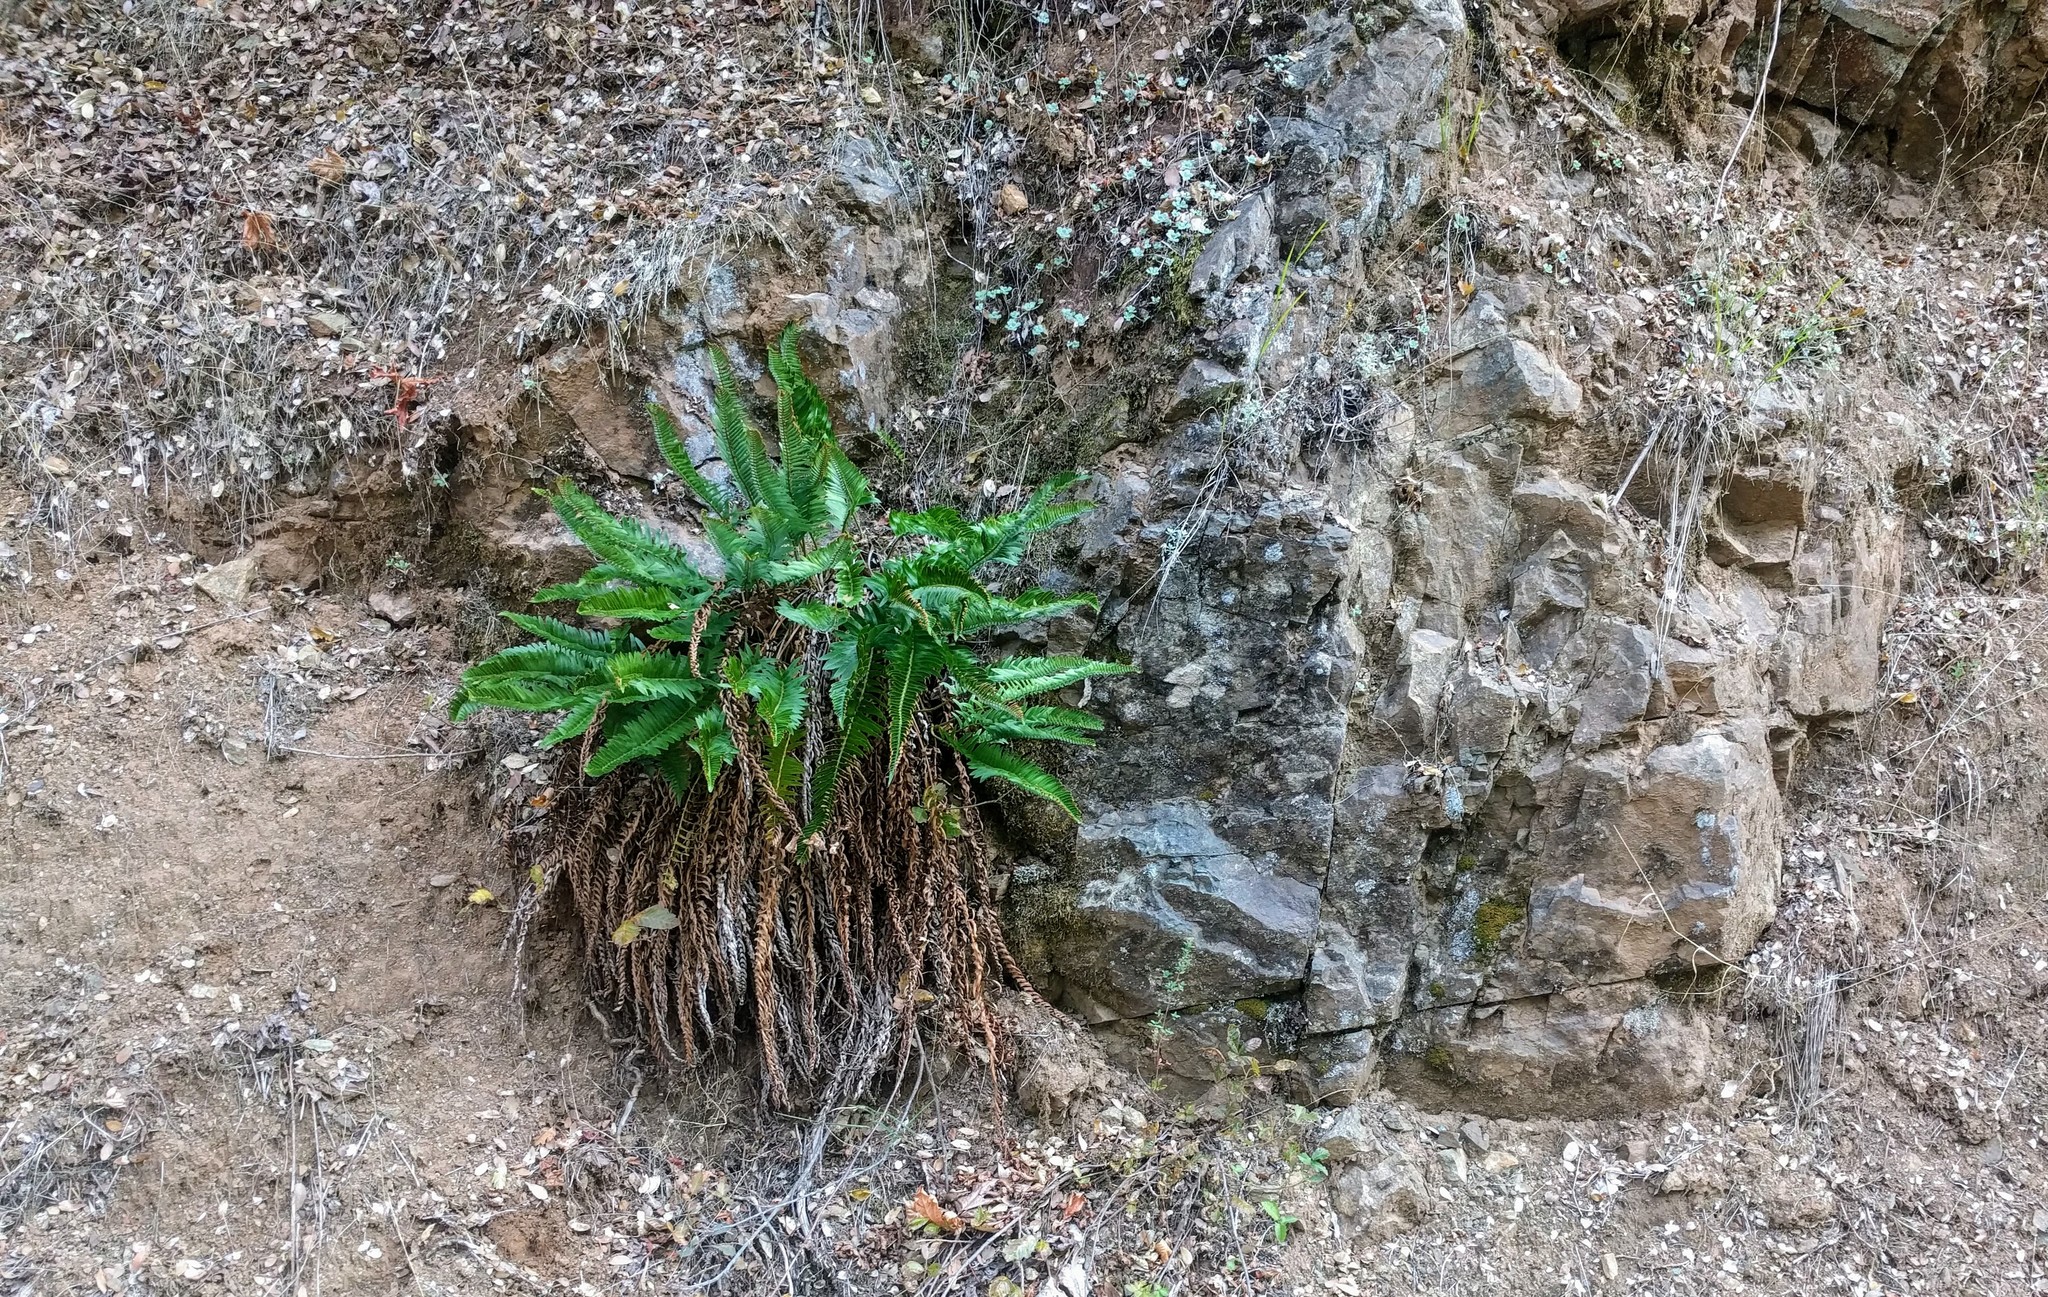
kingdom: Plantae
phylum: Tracheophyta
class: Polypodiopsida
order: Polypodiales
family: Dryopteridaceae
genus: Polystichum
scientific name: Polystichum imbricans
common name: Dwarf western sword fern
